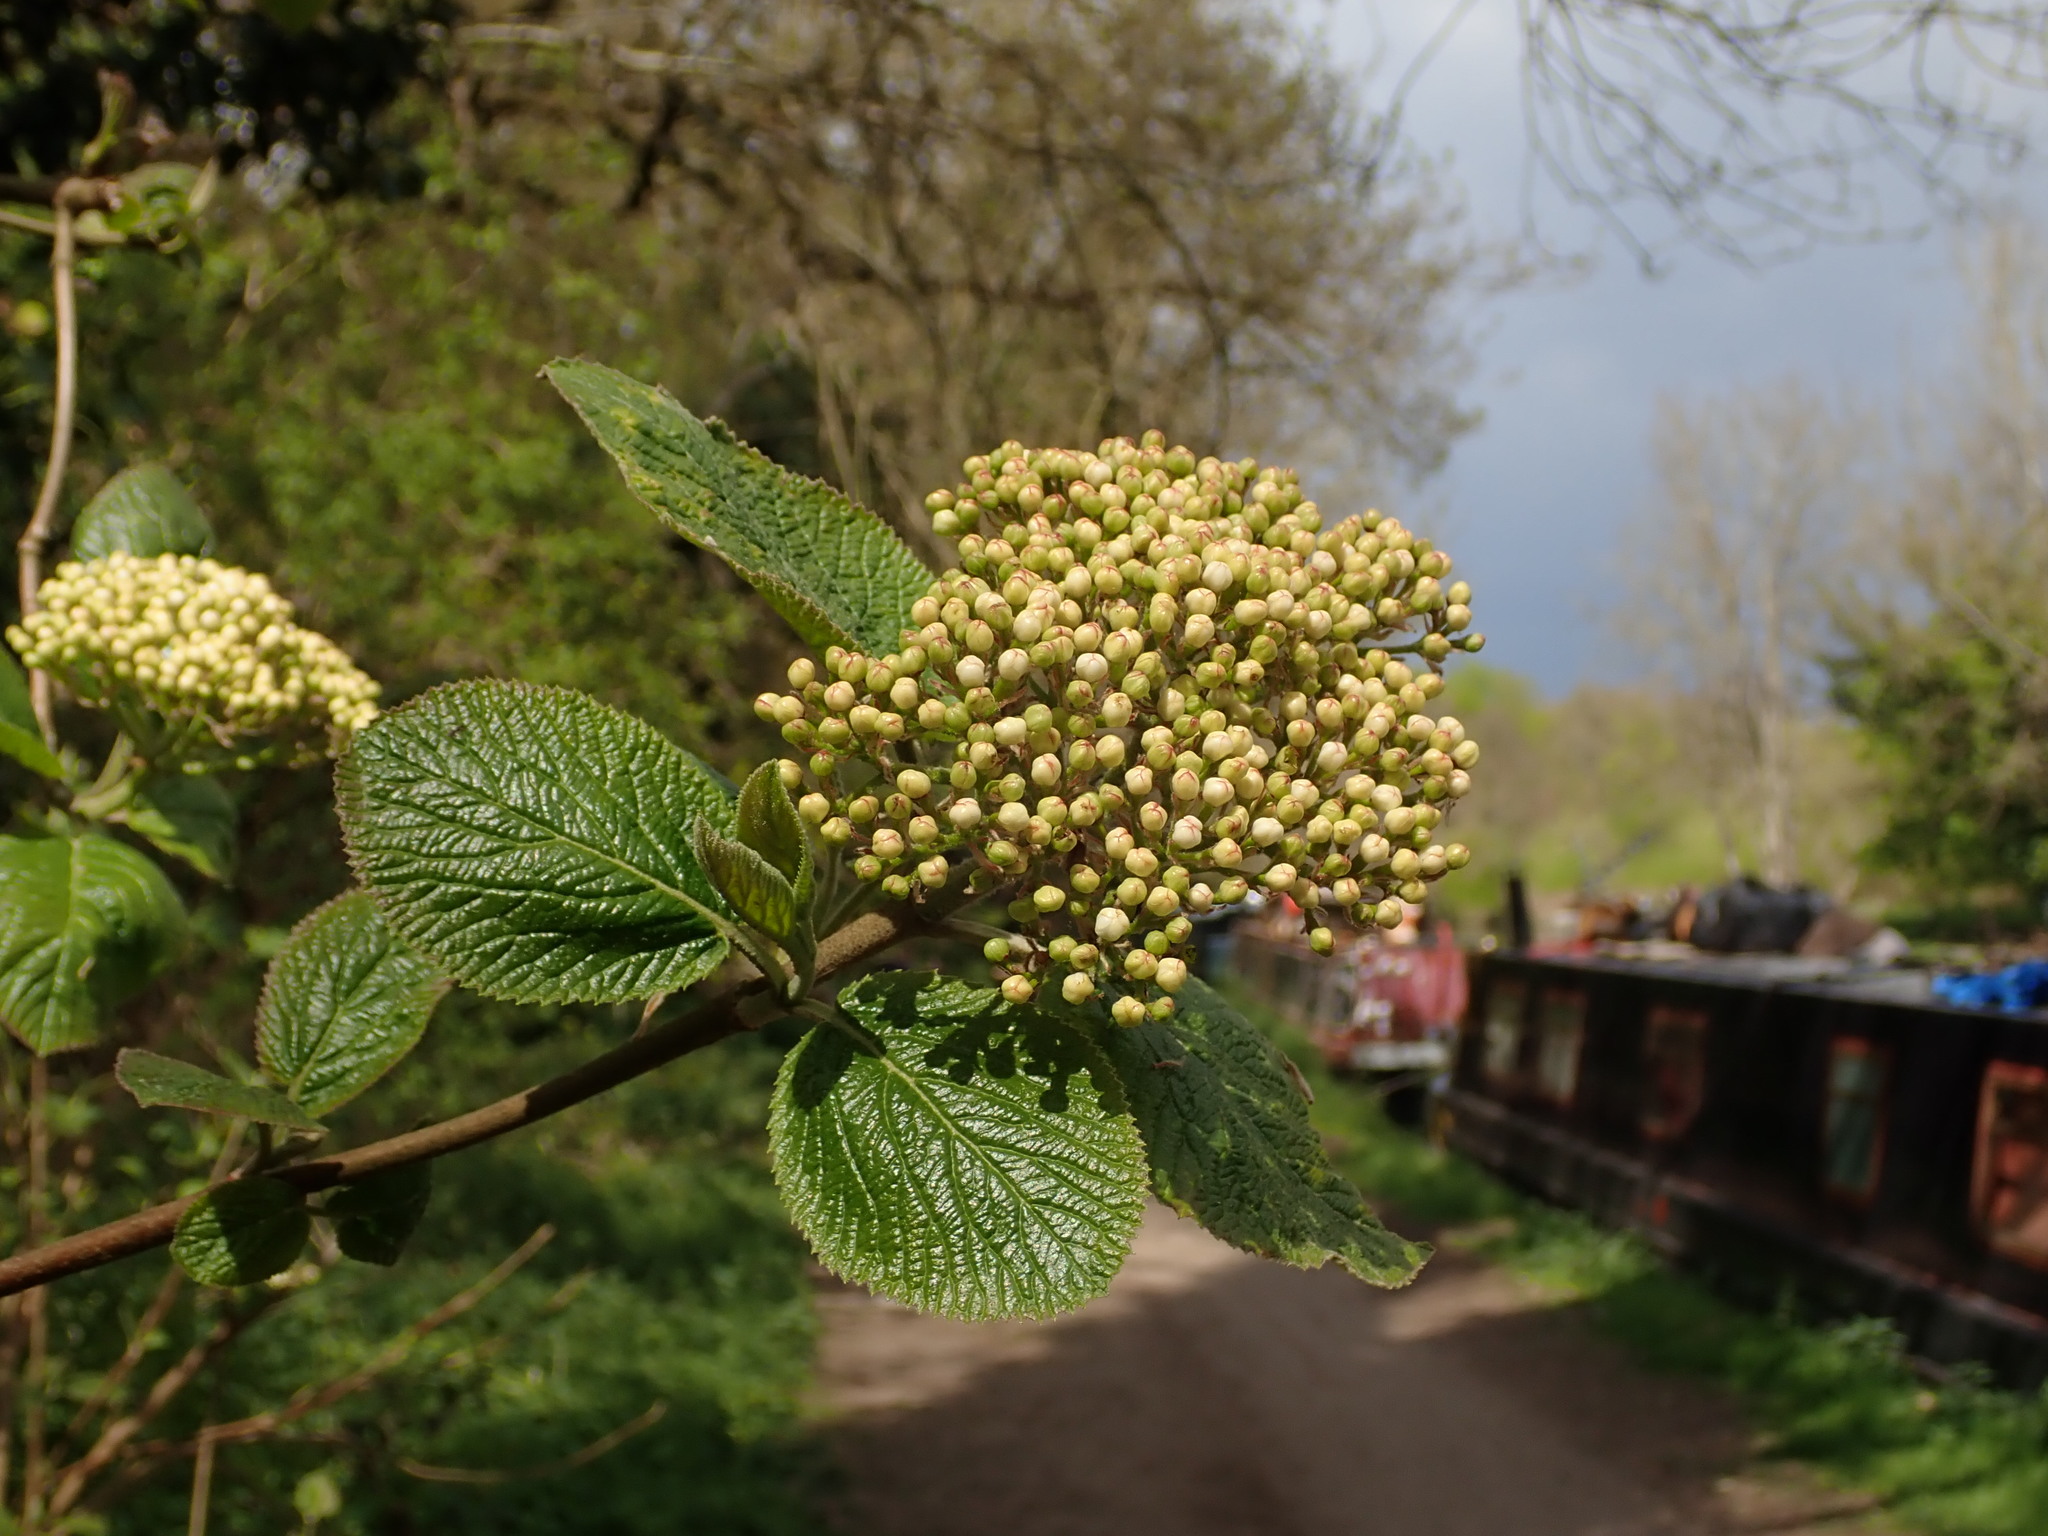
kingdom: Plantae
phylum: Tracheophyta
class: Magnoliopsida
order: Dipsacales
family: Viburnaceae
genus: Viburnum
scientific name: Viburnum lantana
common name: Wayfaring tree
